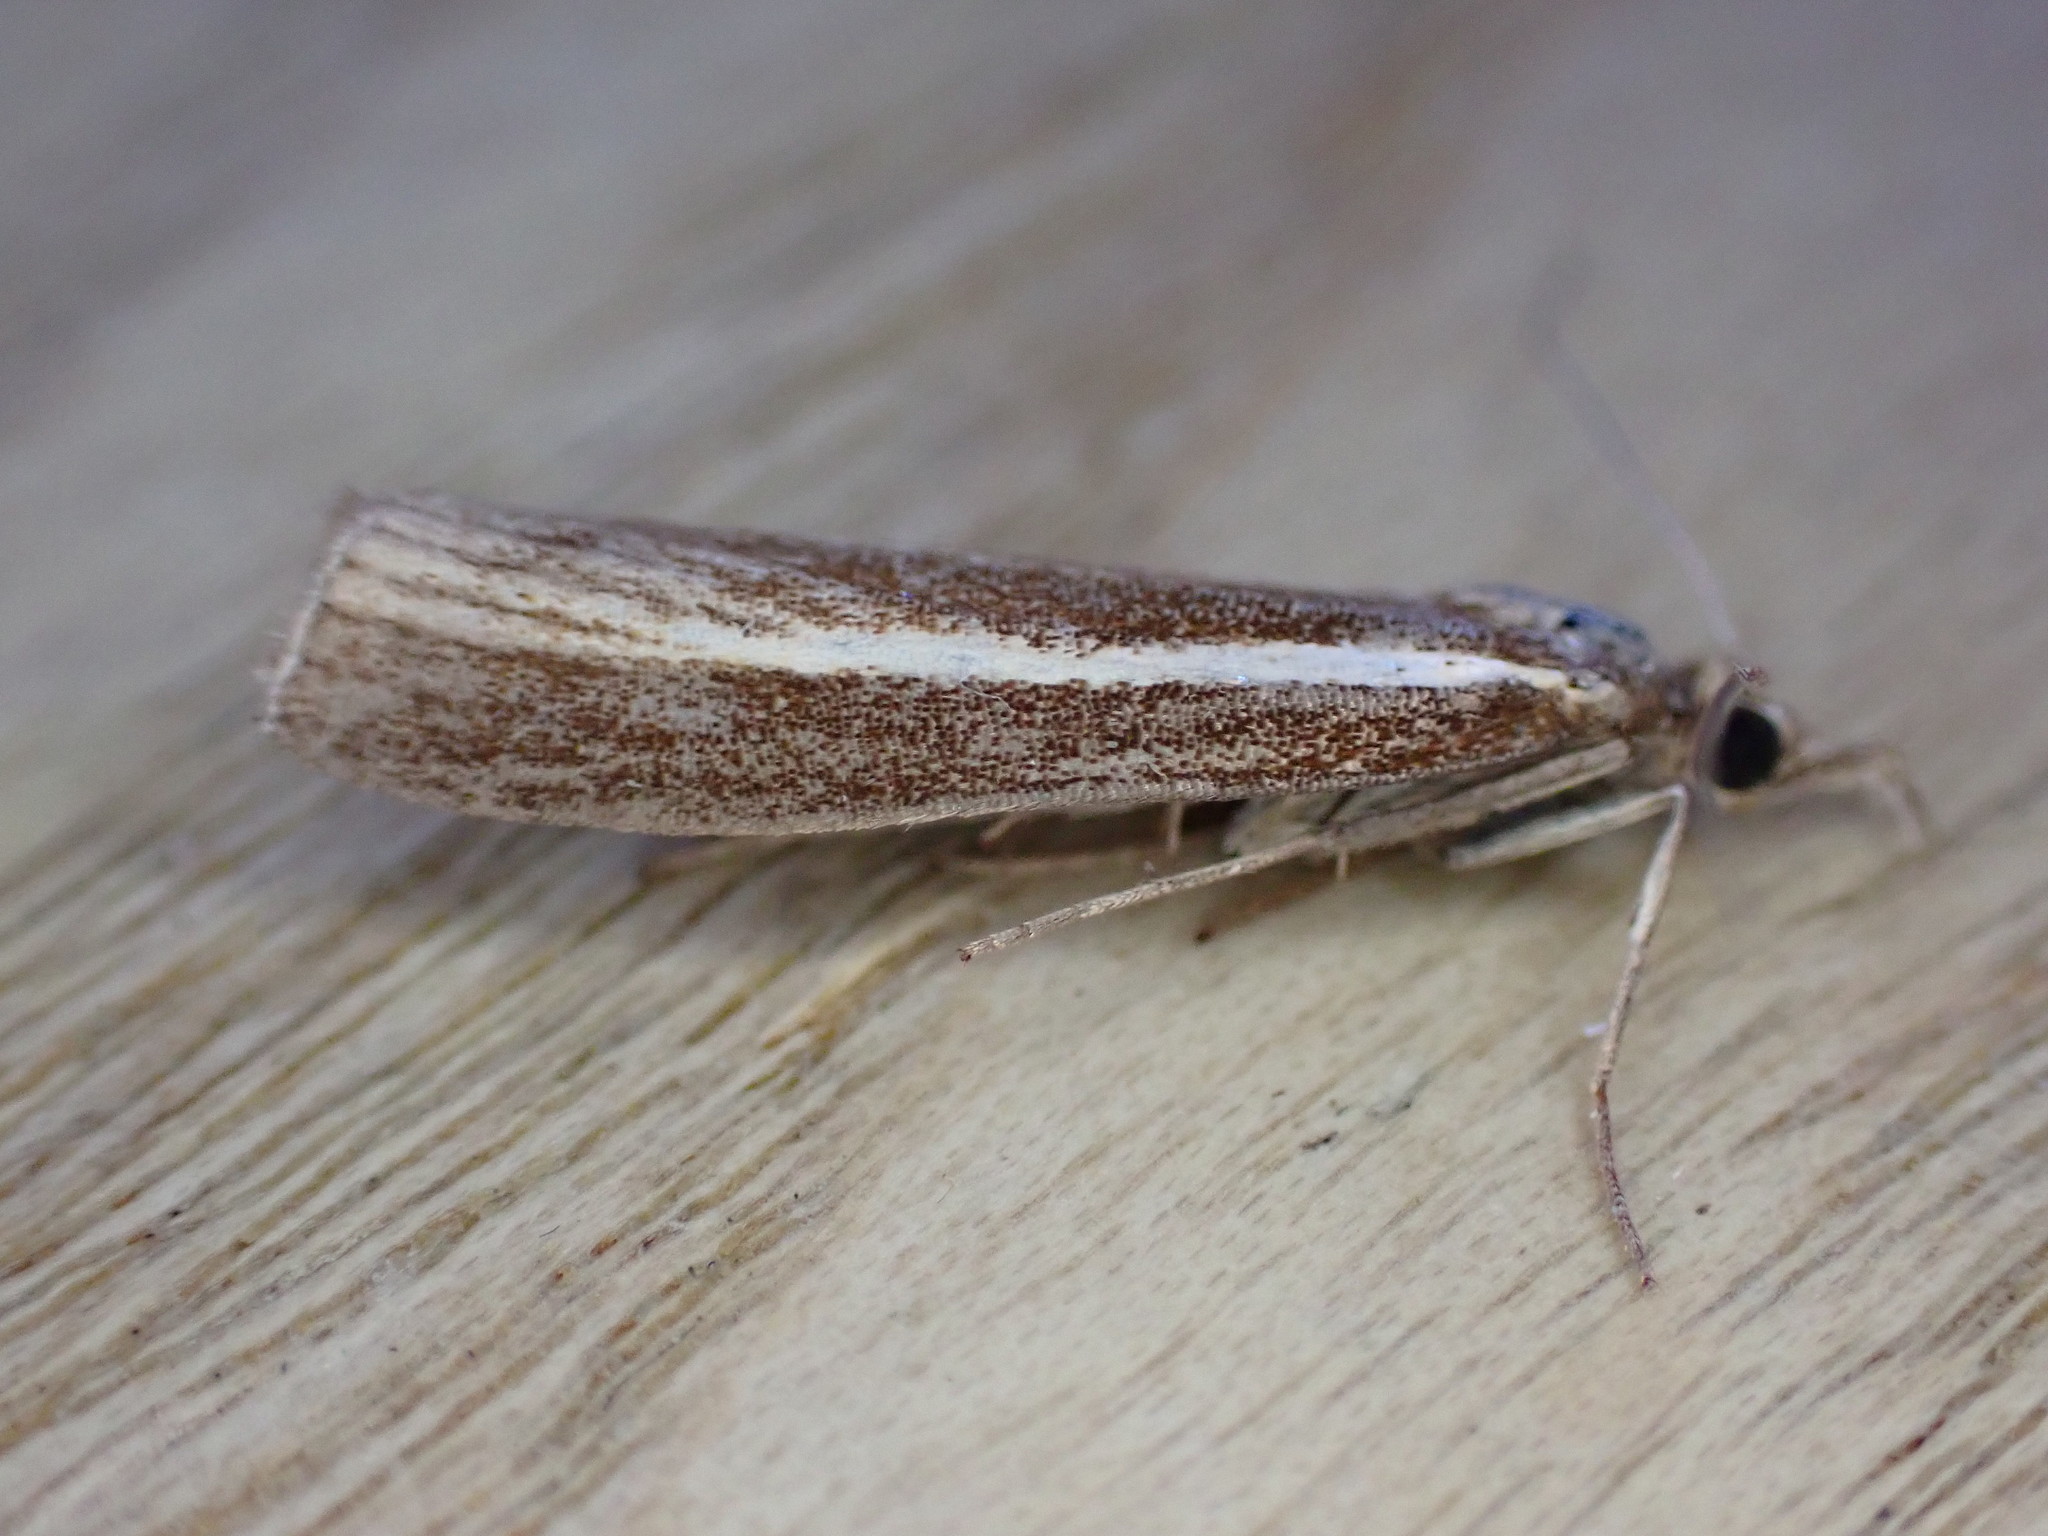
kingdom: Animalia
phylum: Arthropoda
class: Insecta
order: Lepidoptera
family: Crambidae
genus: Agriphila
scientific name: Agriphila tristellus
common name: Common grass-veneer
